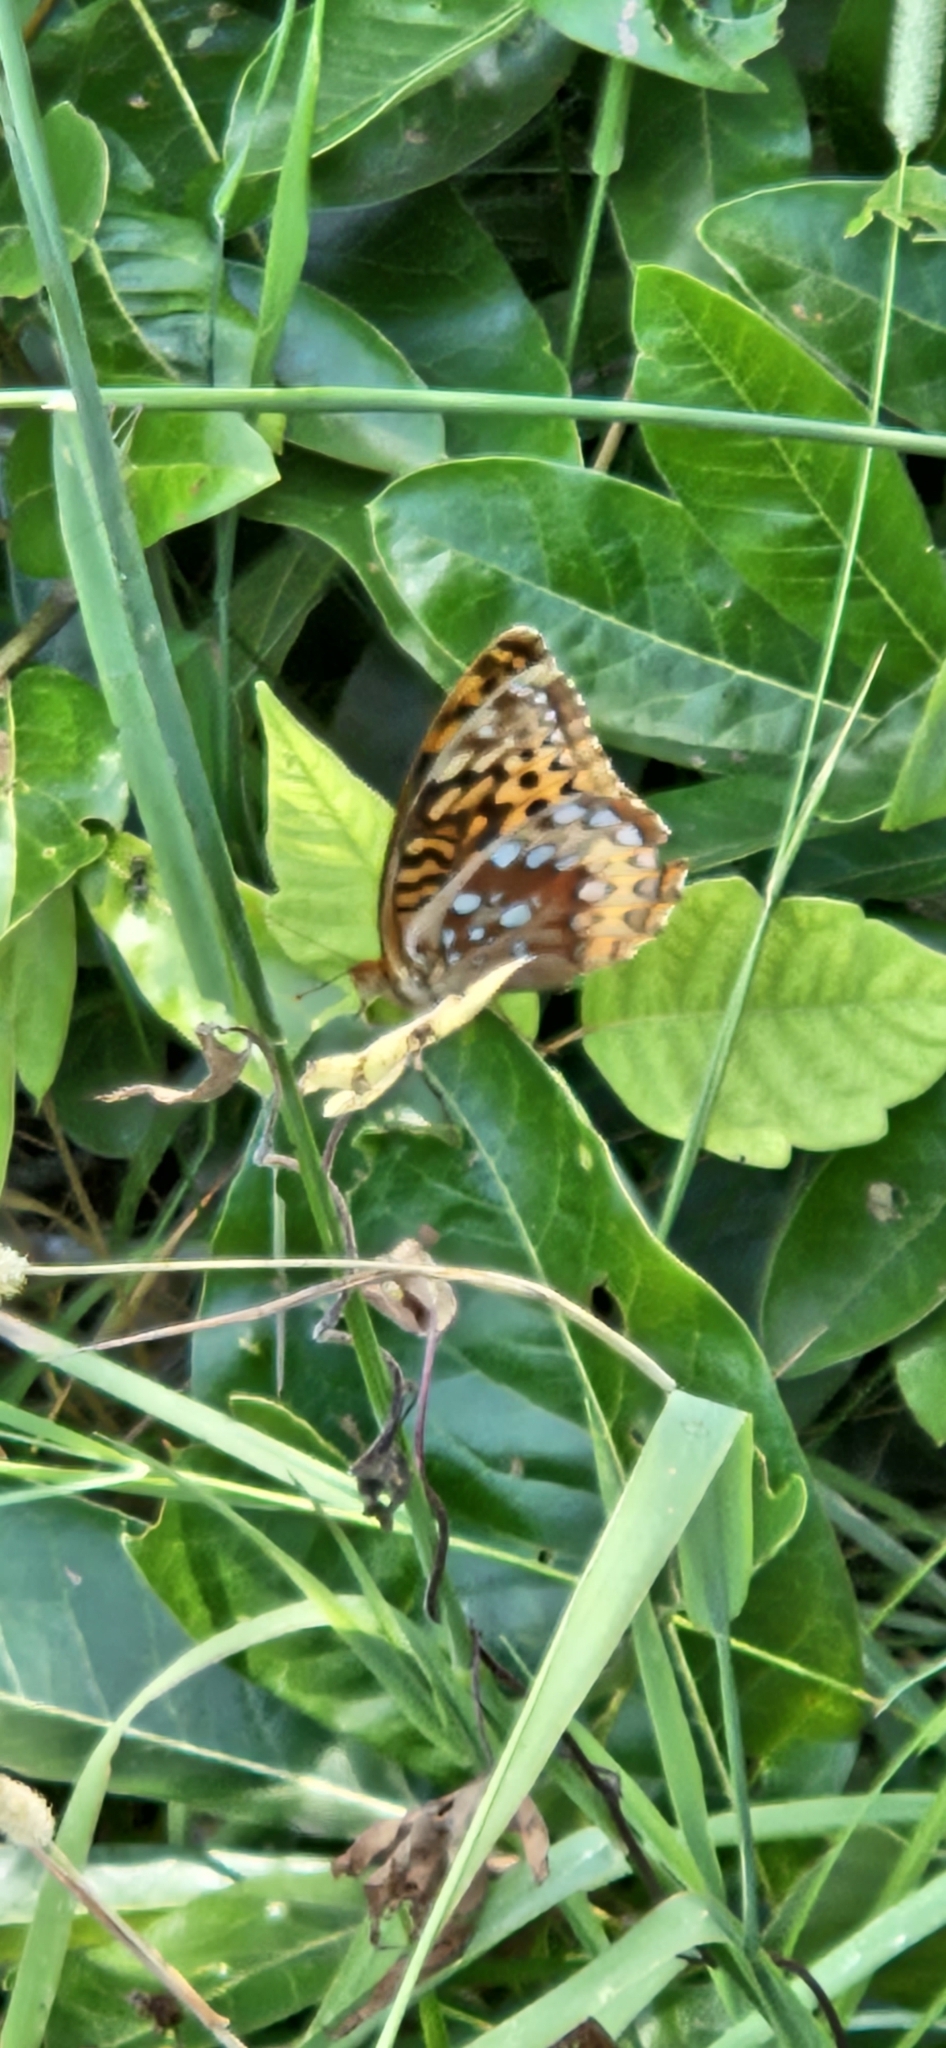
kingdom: Animalia
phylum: Arthropoda
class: Insecta
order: Lepidoptera
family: Nymphalidae
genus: Speyeria
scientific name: Speyeria cybele
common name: Great spangled fritillary
